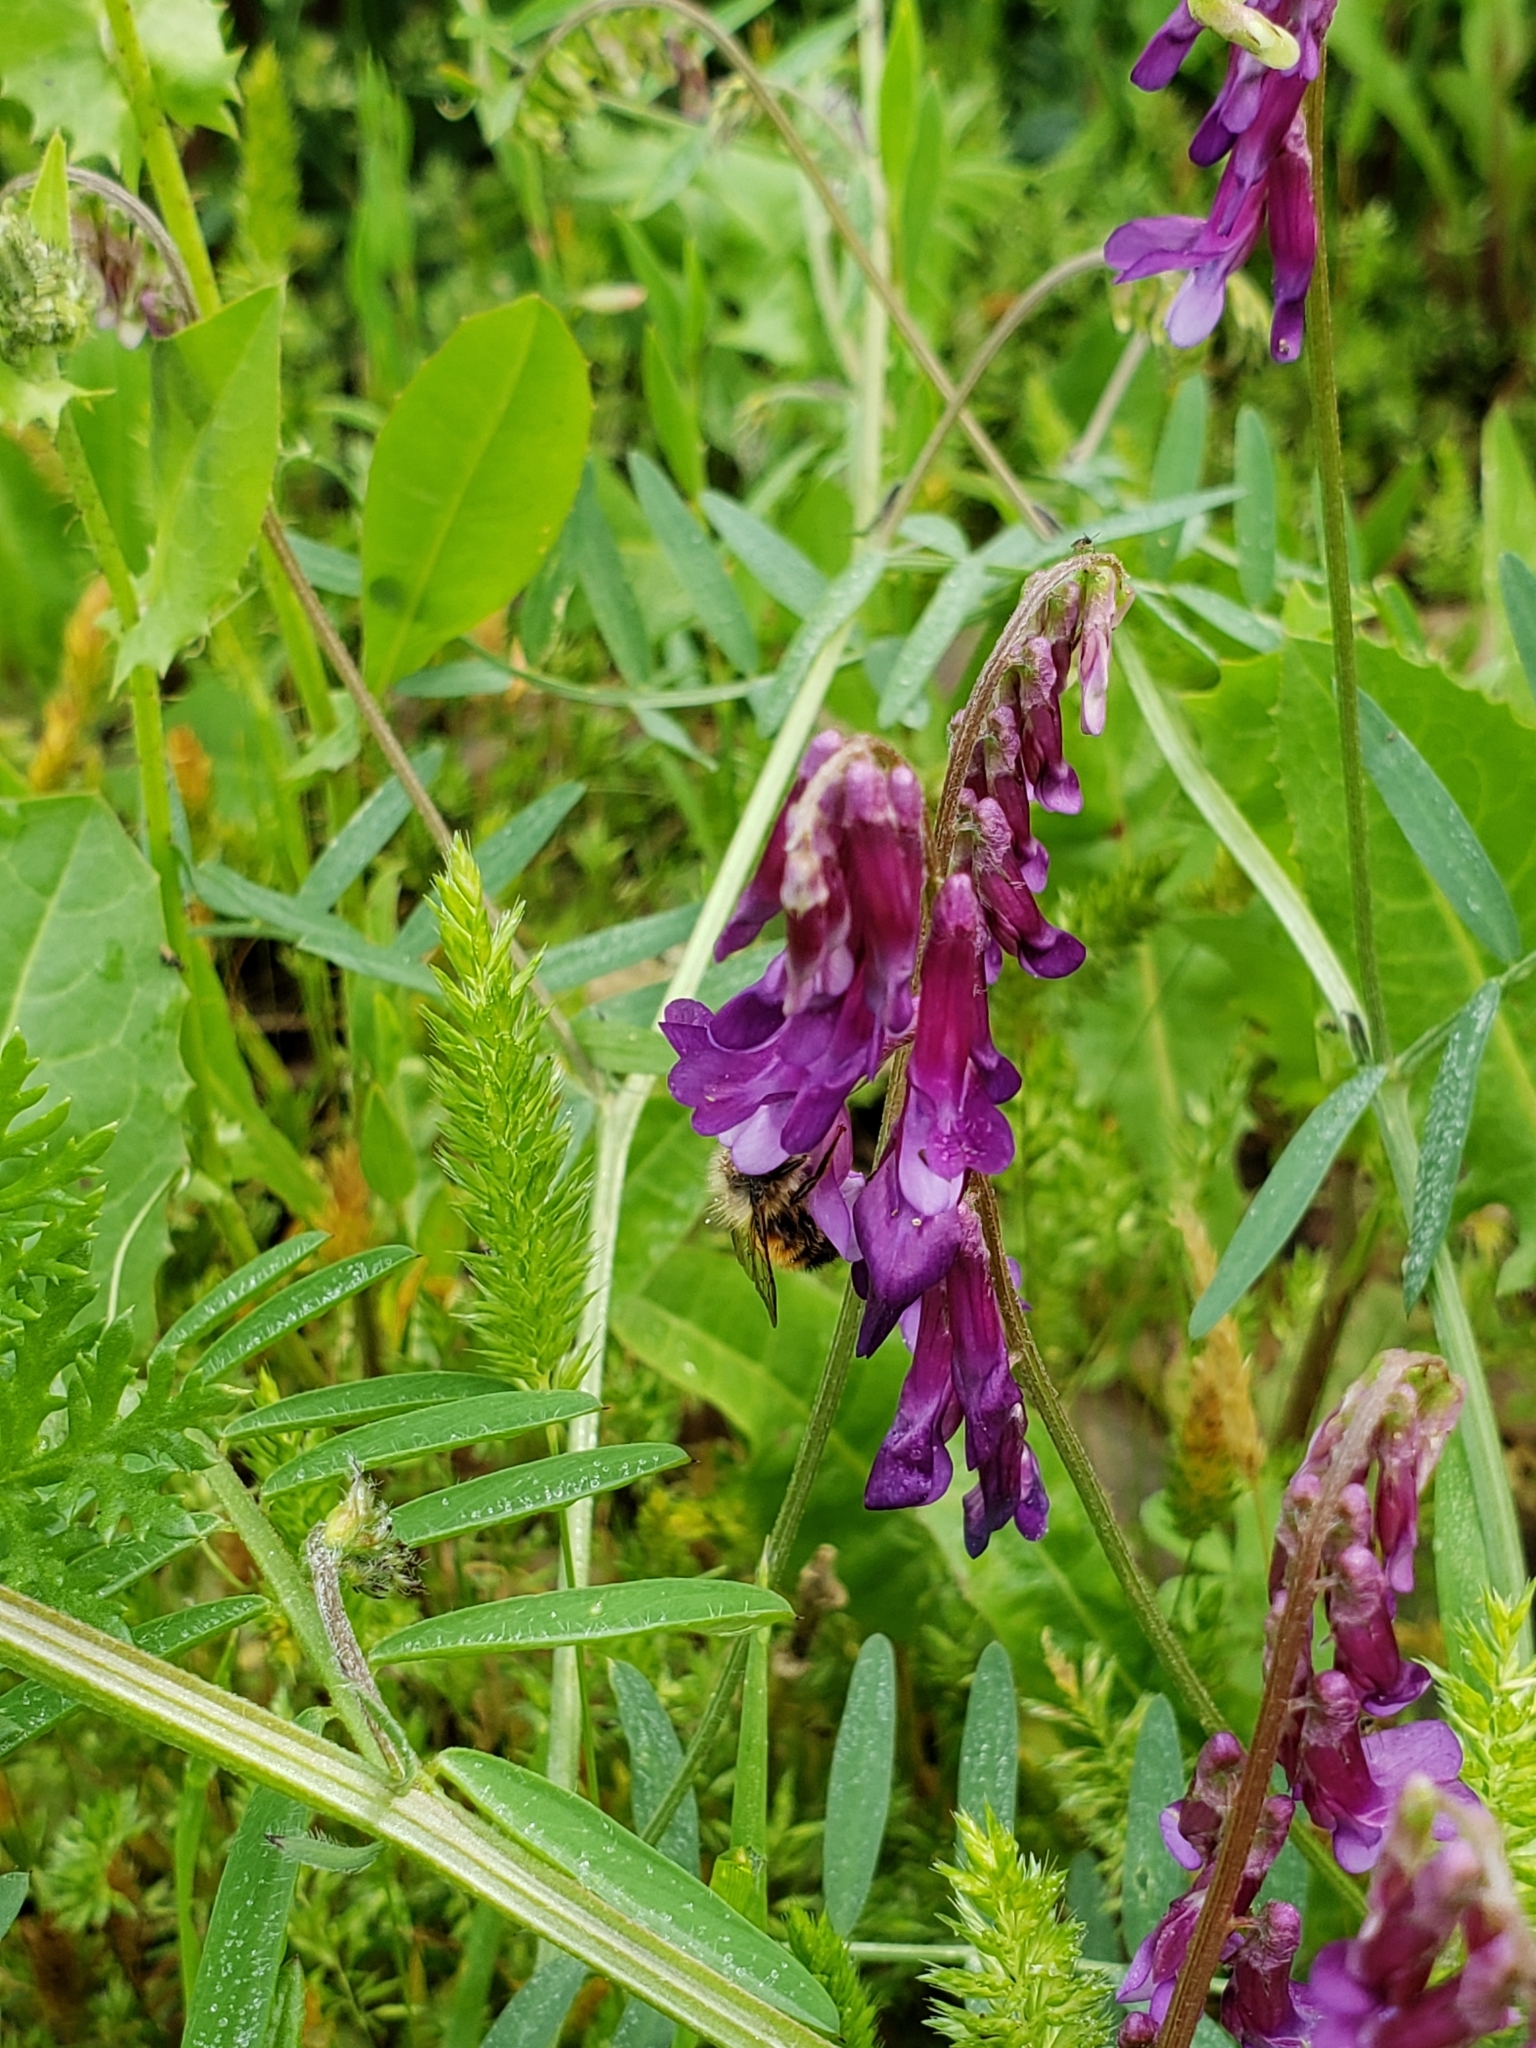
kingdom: Plantae
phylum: Tracheophyta
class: Magnoliopsida
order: Fabales
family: Fabaceae
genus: Vicia
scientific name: Vicia villosa
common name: Fodder vetch
